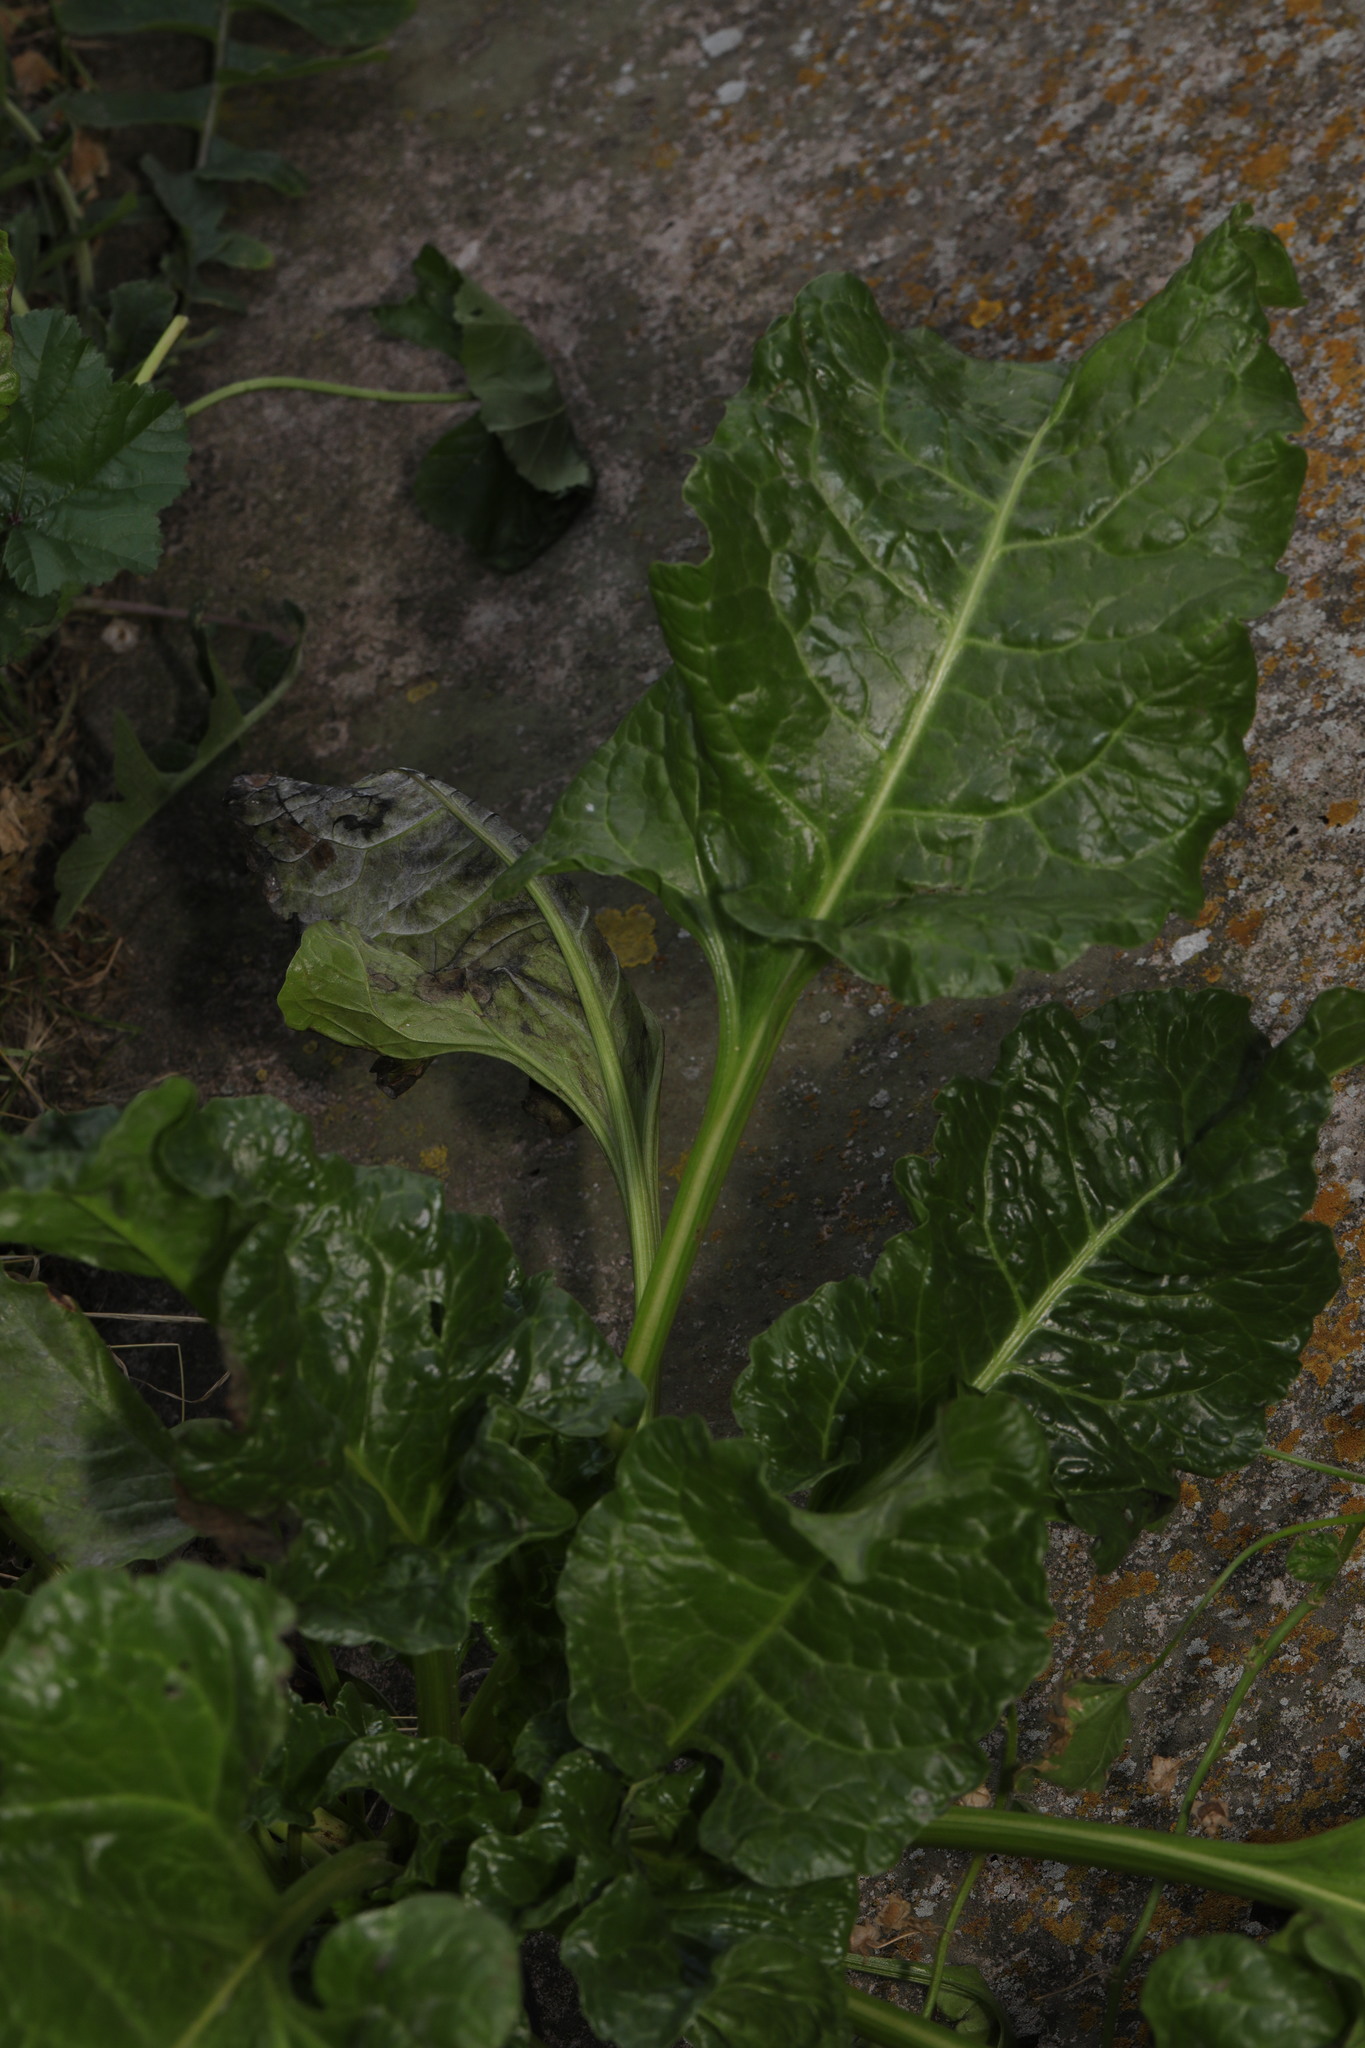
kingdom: Plantae
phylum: Tracheophyta
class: Magnoliopsida
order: Caryophyllales
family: Amaranthaceae
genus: Beta
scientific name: Beta vulgaris
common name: Beet
